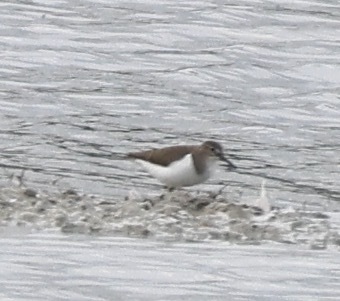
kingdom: Animalia
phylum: Chordata
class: Aves
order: Charadriiformes
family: Scolopacidae
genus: Actitis
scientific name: Actitis hypoleucos
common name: Common sandpiper
